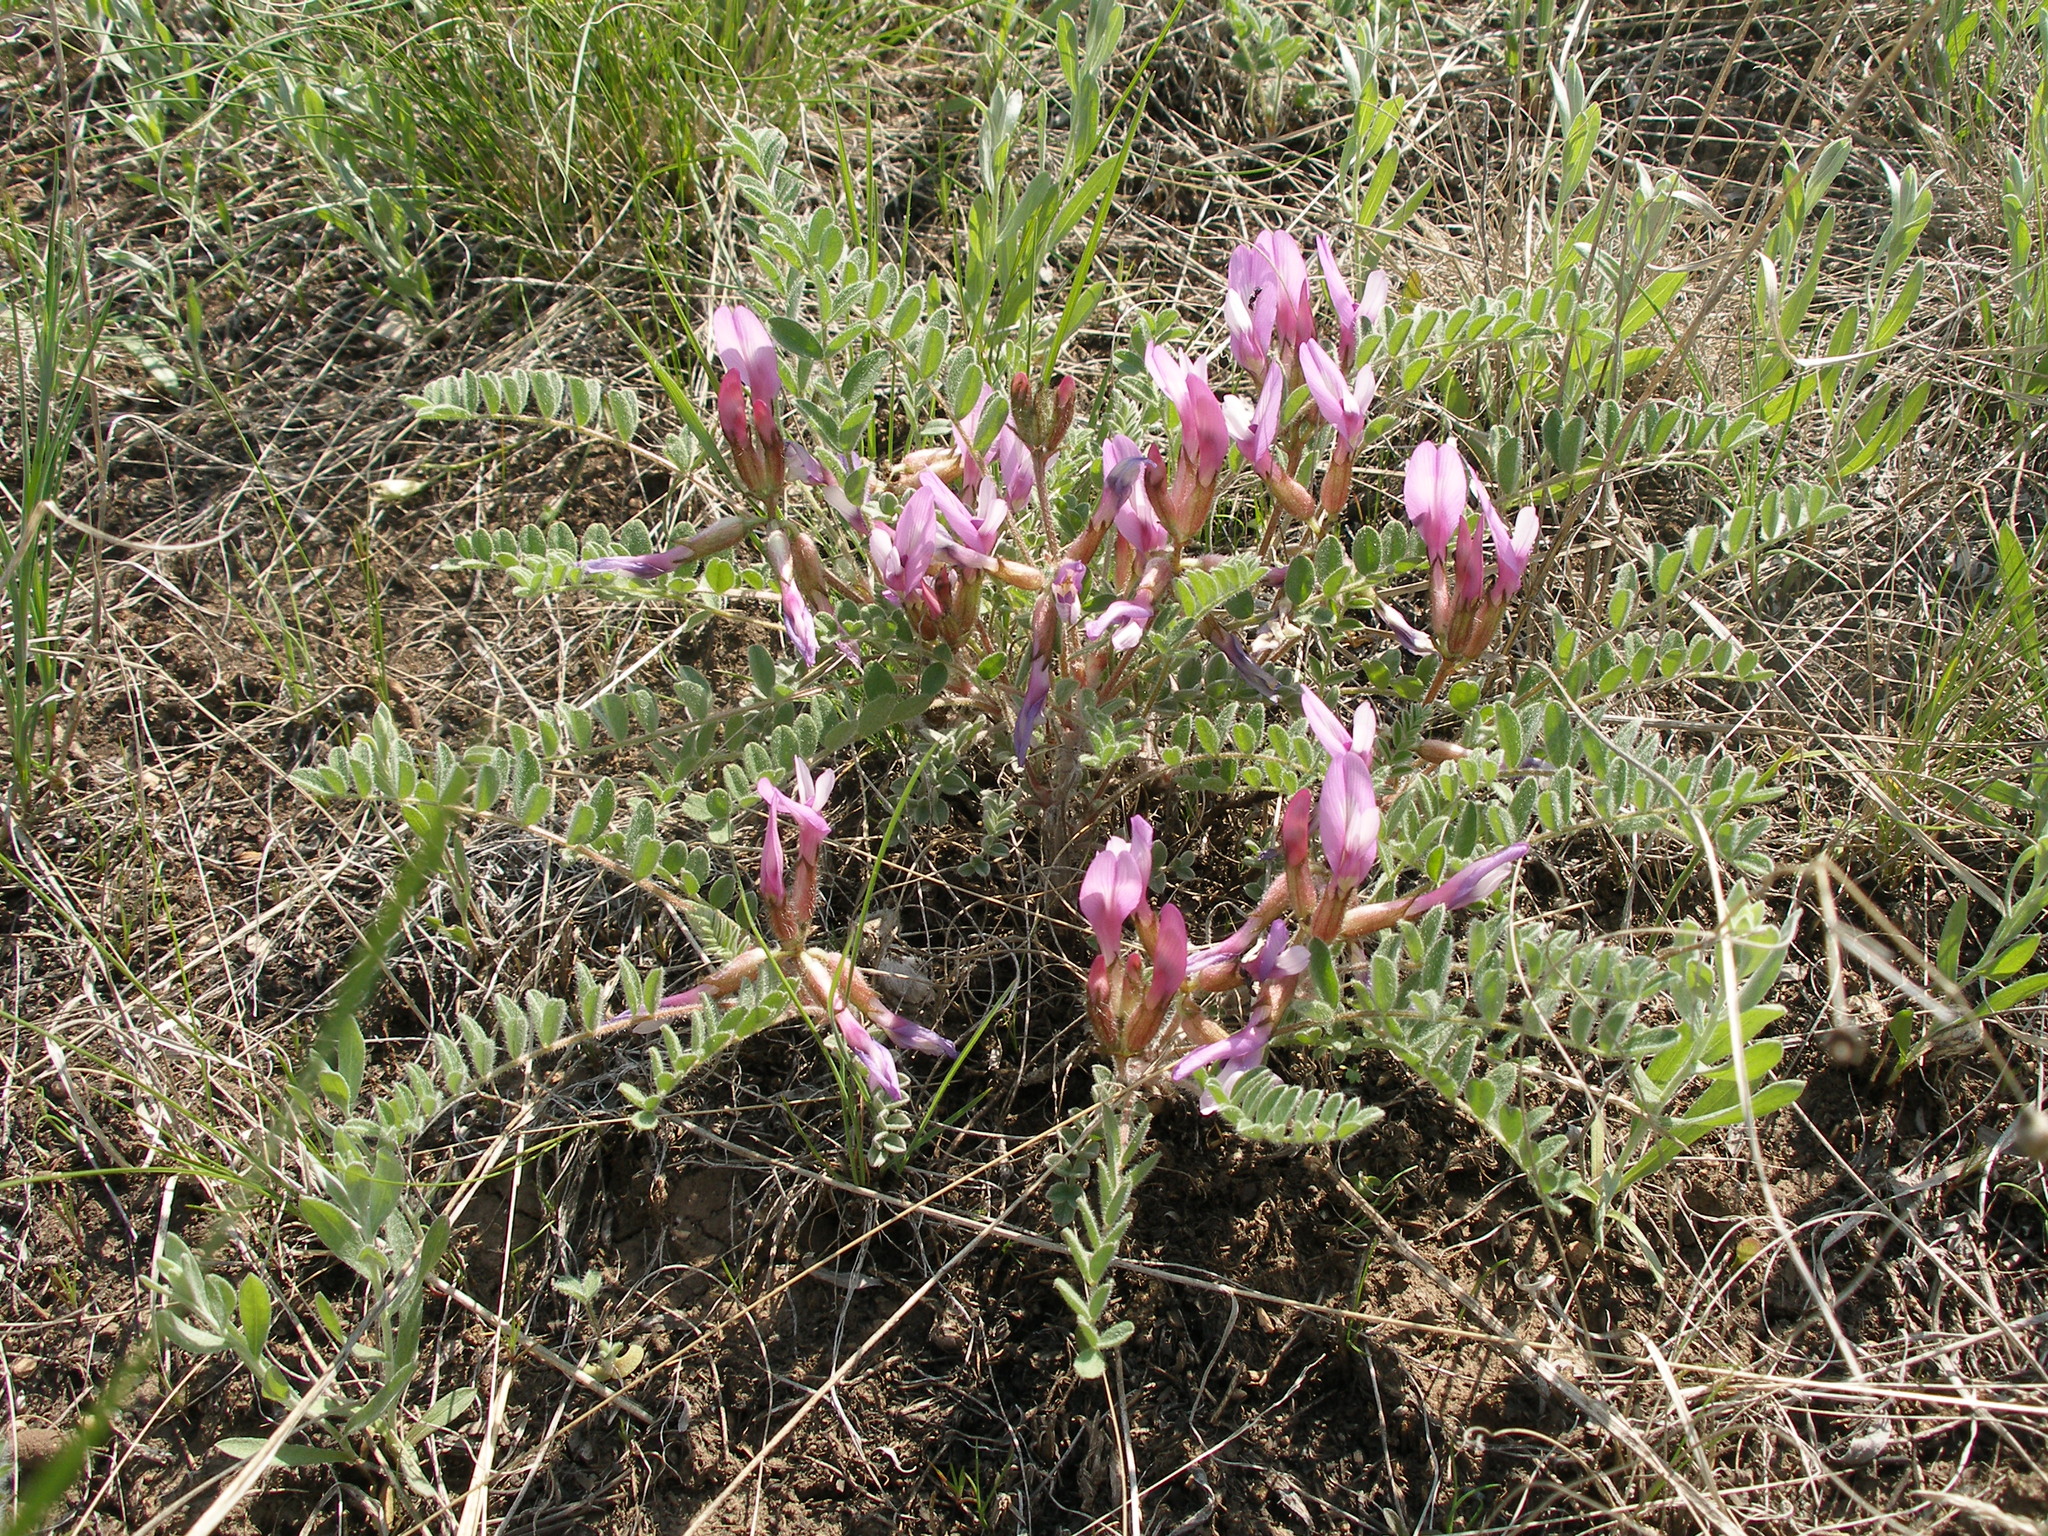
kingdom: Plantae
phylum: Tracheophyta
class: Magnoliopsida
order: Fabales
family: Fabaceae
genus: Astragalus
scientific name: Astragalus testiculatus
